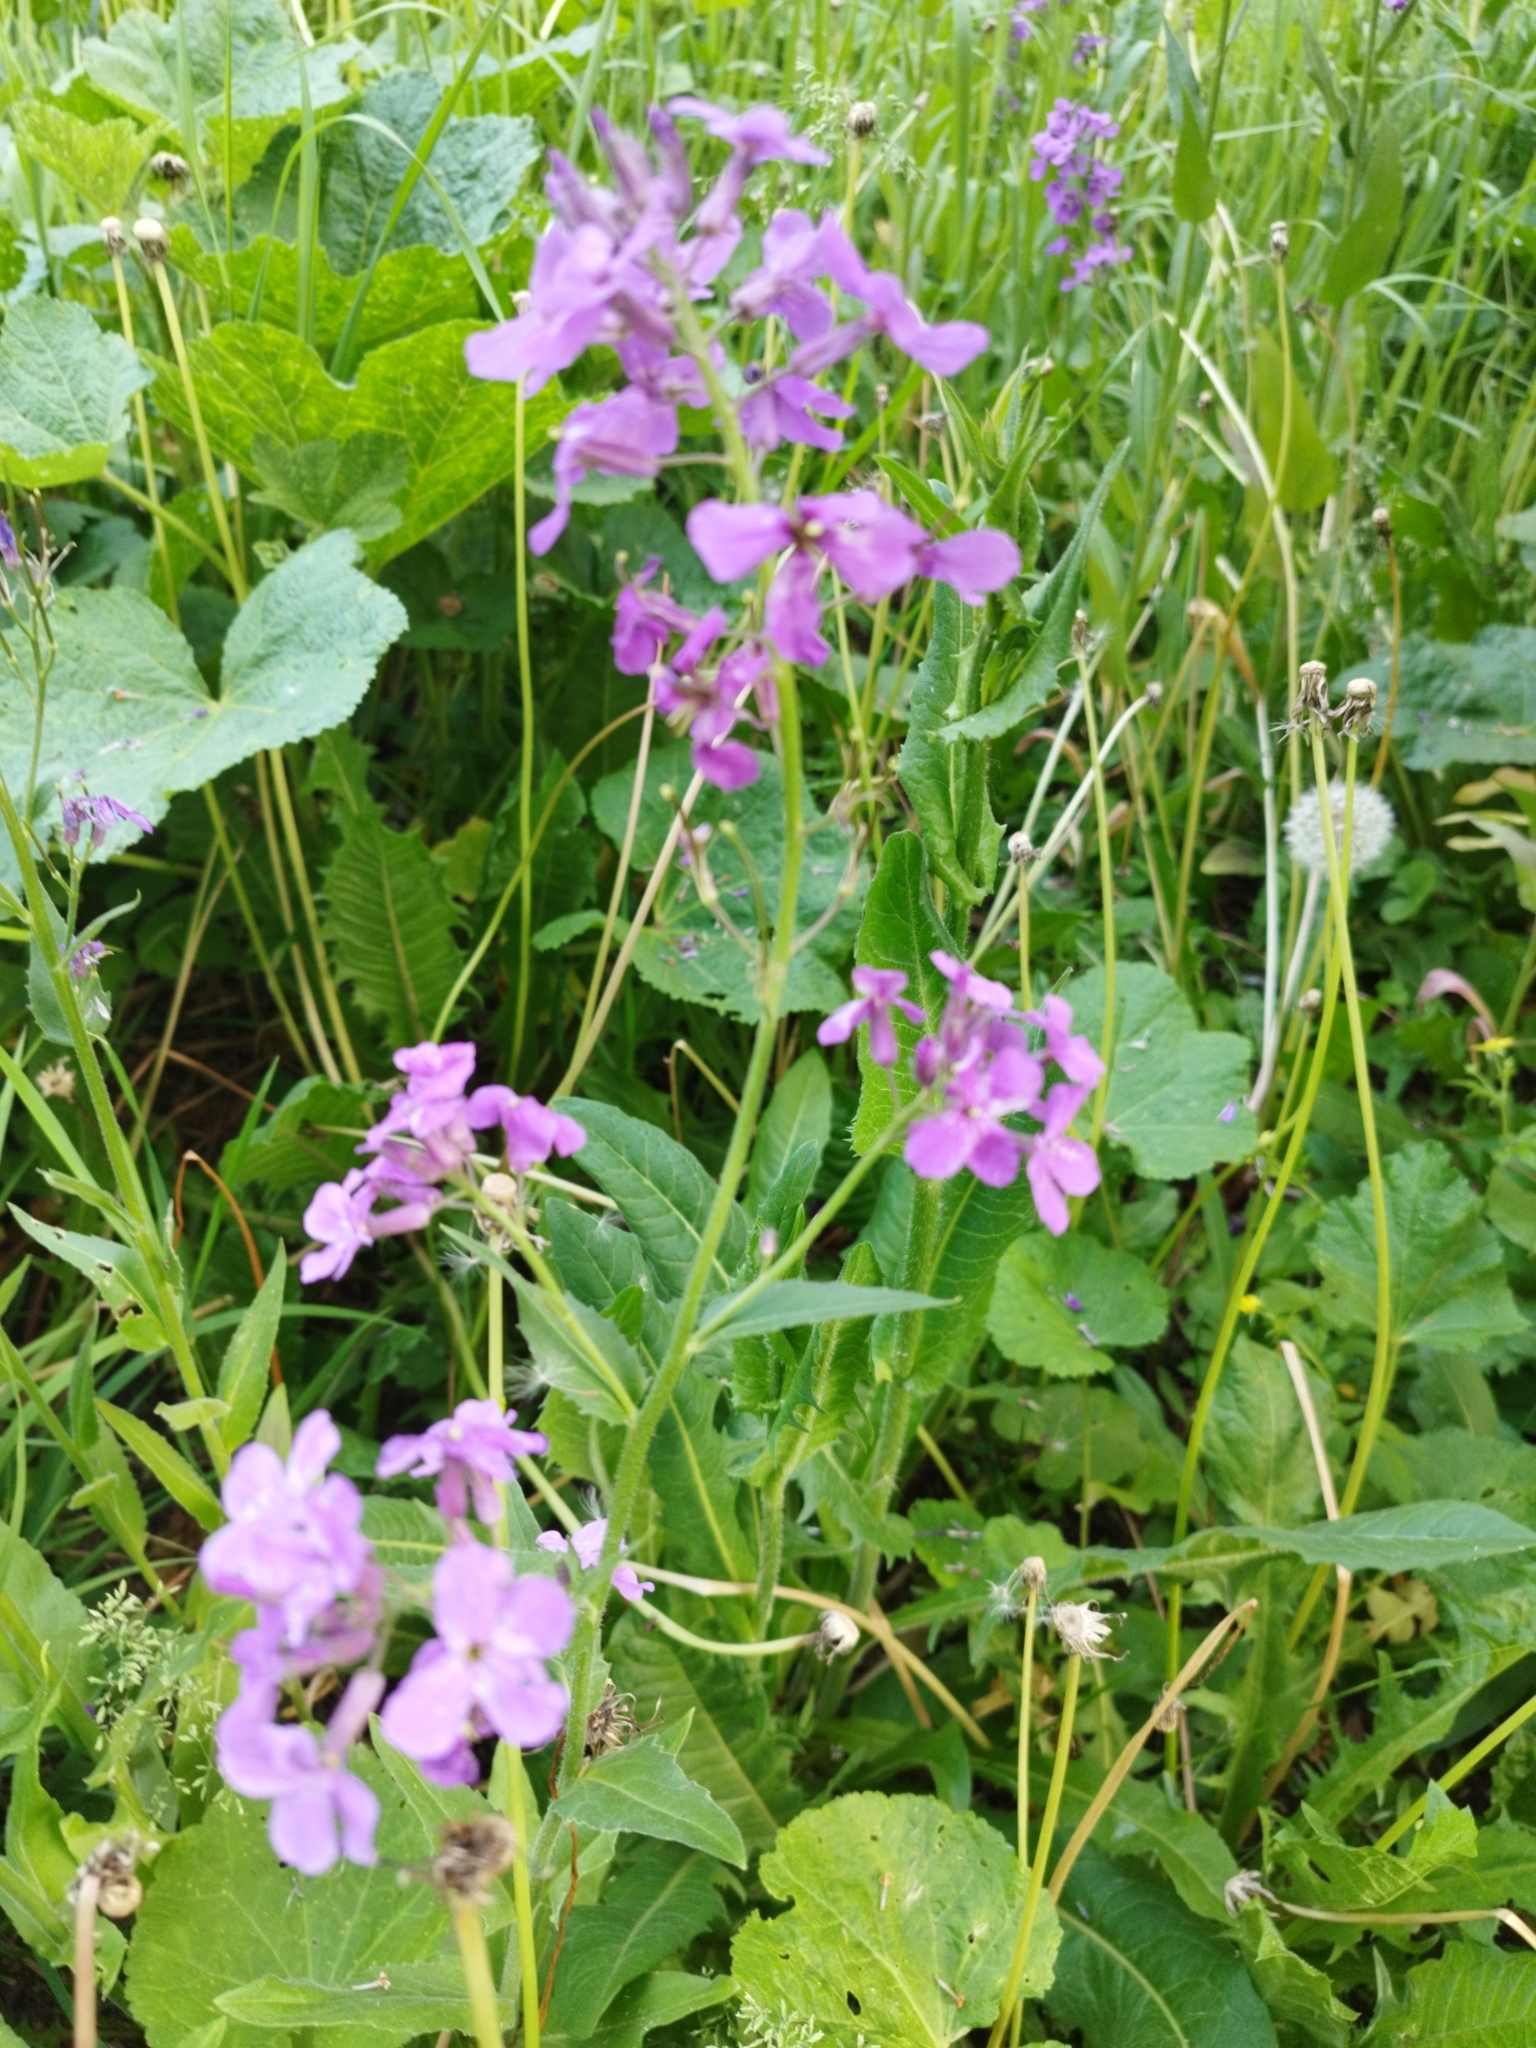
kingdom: Plantae
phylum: Tracheophyta
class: Magnoliopsida
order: Brassicales
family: Brassicaceae
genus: Hesperis
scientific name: Hesperis matronalis
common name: Dame's-violet
